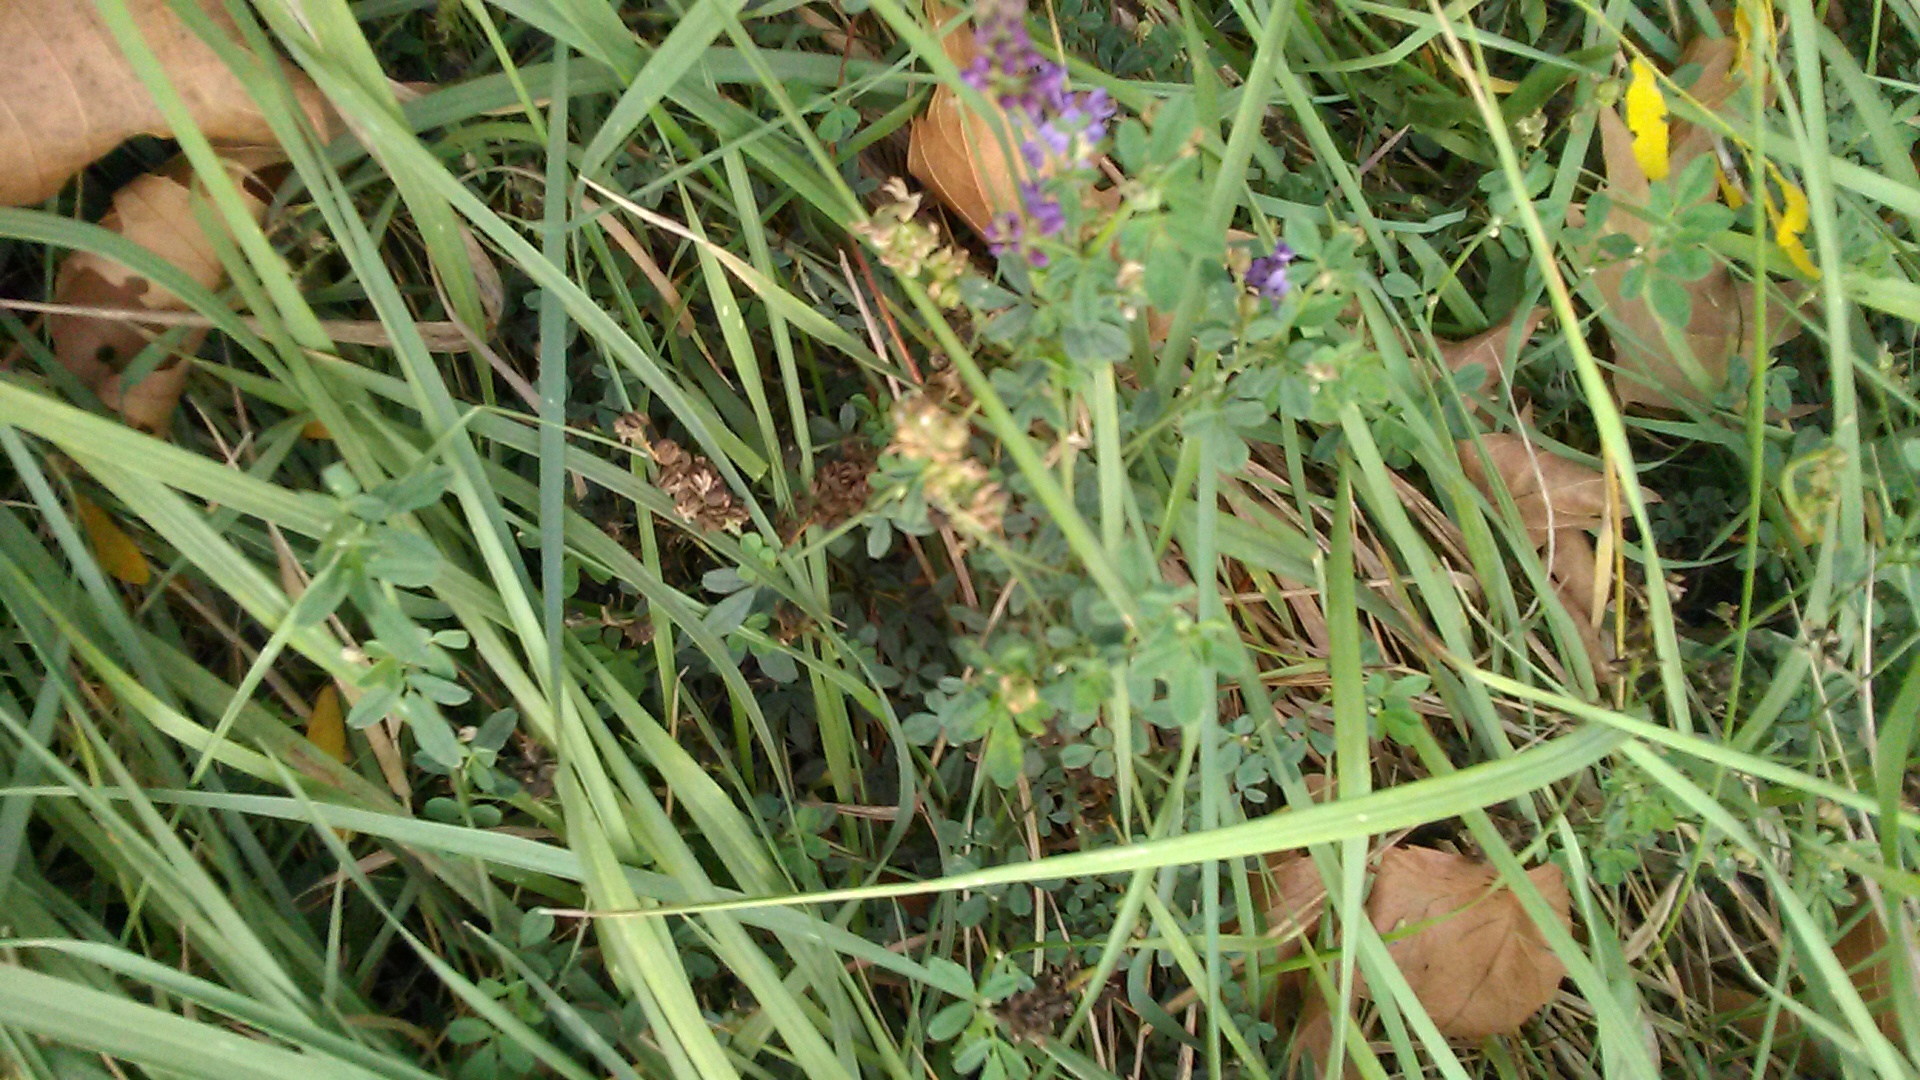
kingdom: Plantae
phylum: Tracheophyta
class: Magnoliopsida
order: Fabales
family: Fabaceae
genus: Medicago
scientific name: Medicago sativa
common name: Alfalfa
